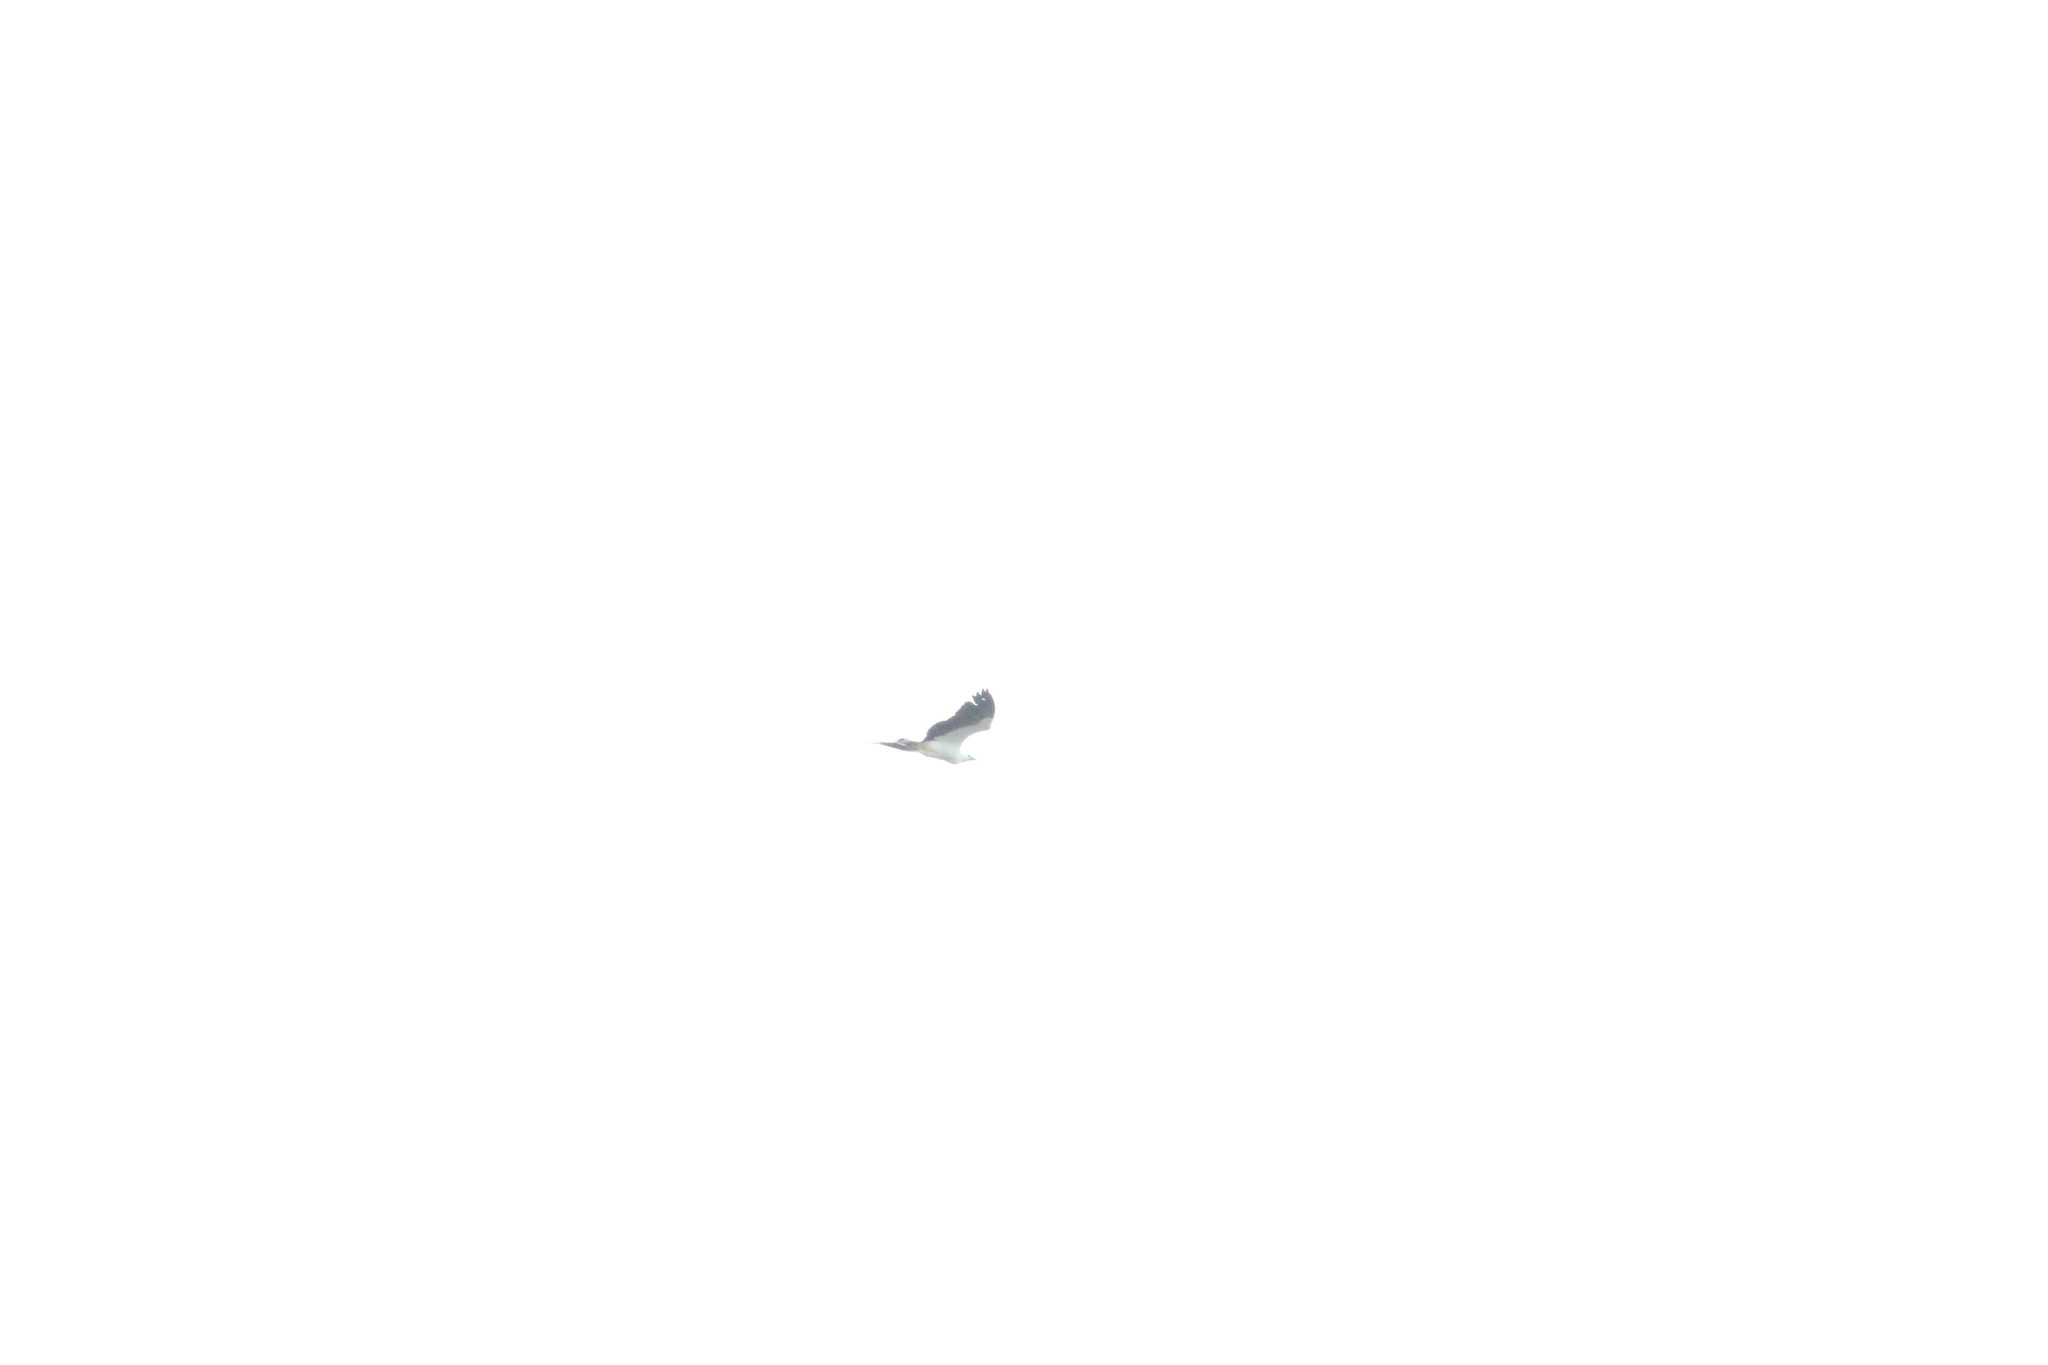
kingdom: Animalia
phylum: Chordata
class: Aves
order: Accipitriformes
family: Accipitridae
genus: Haliaeetus
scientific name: Haliaeetus leucogaster
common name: White-bellied sea eagle
